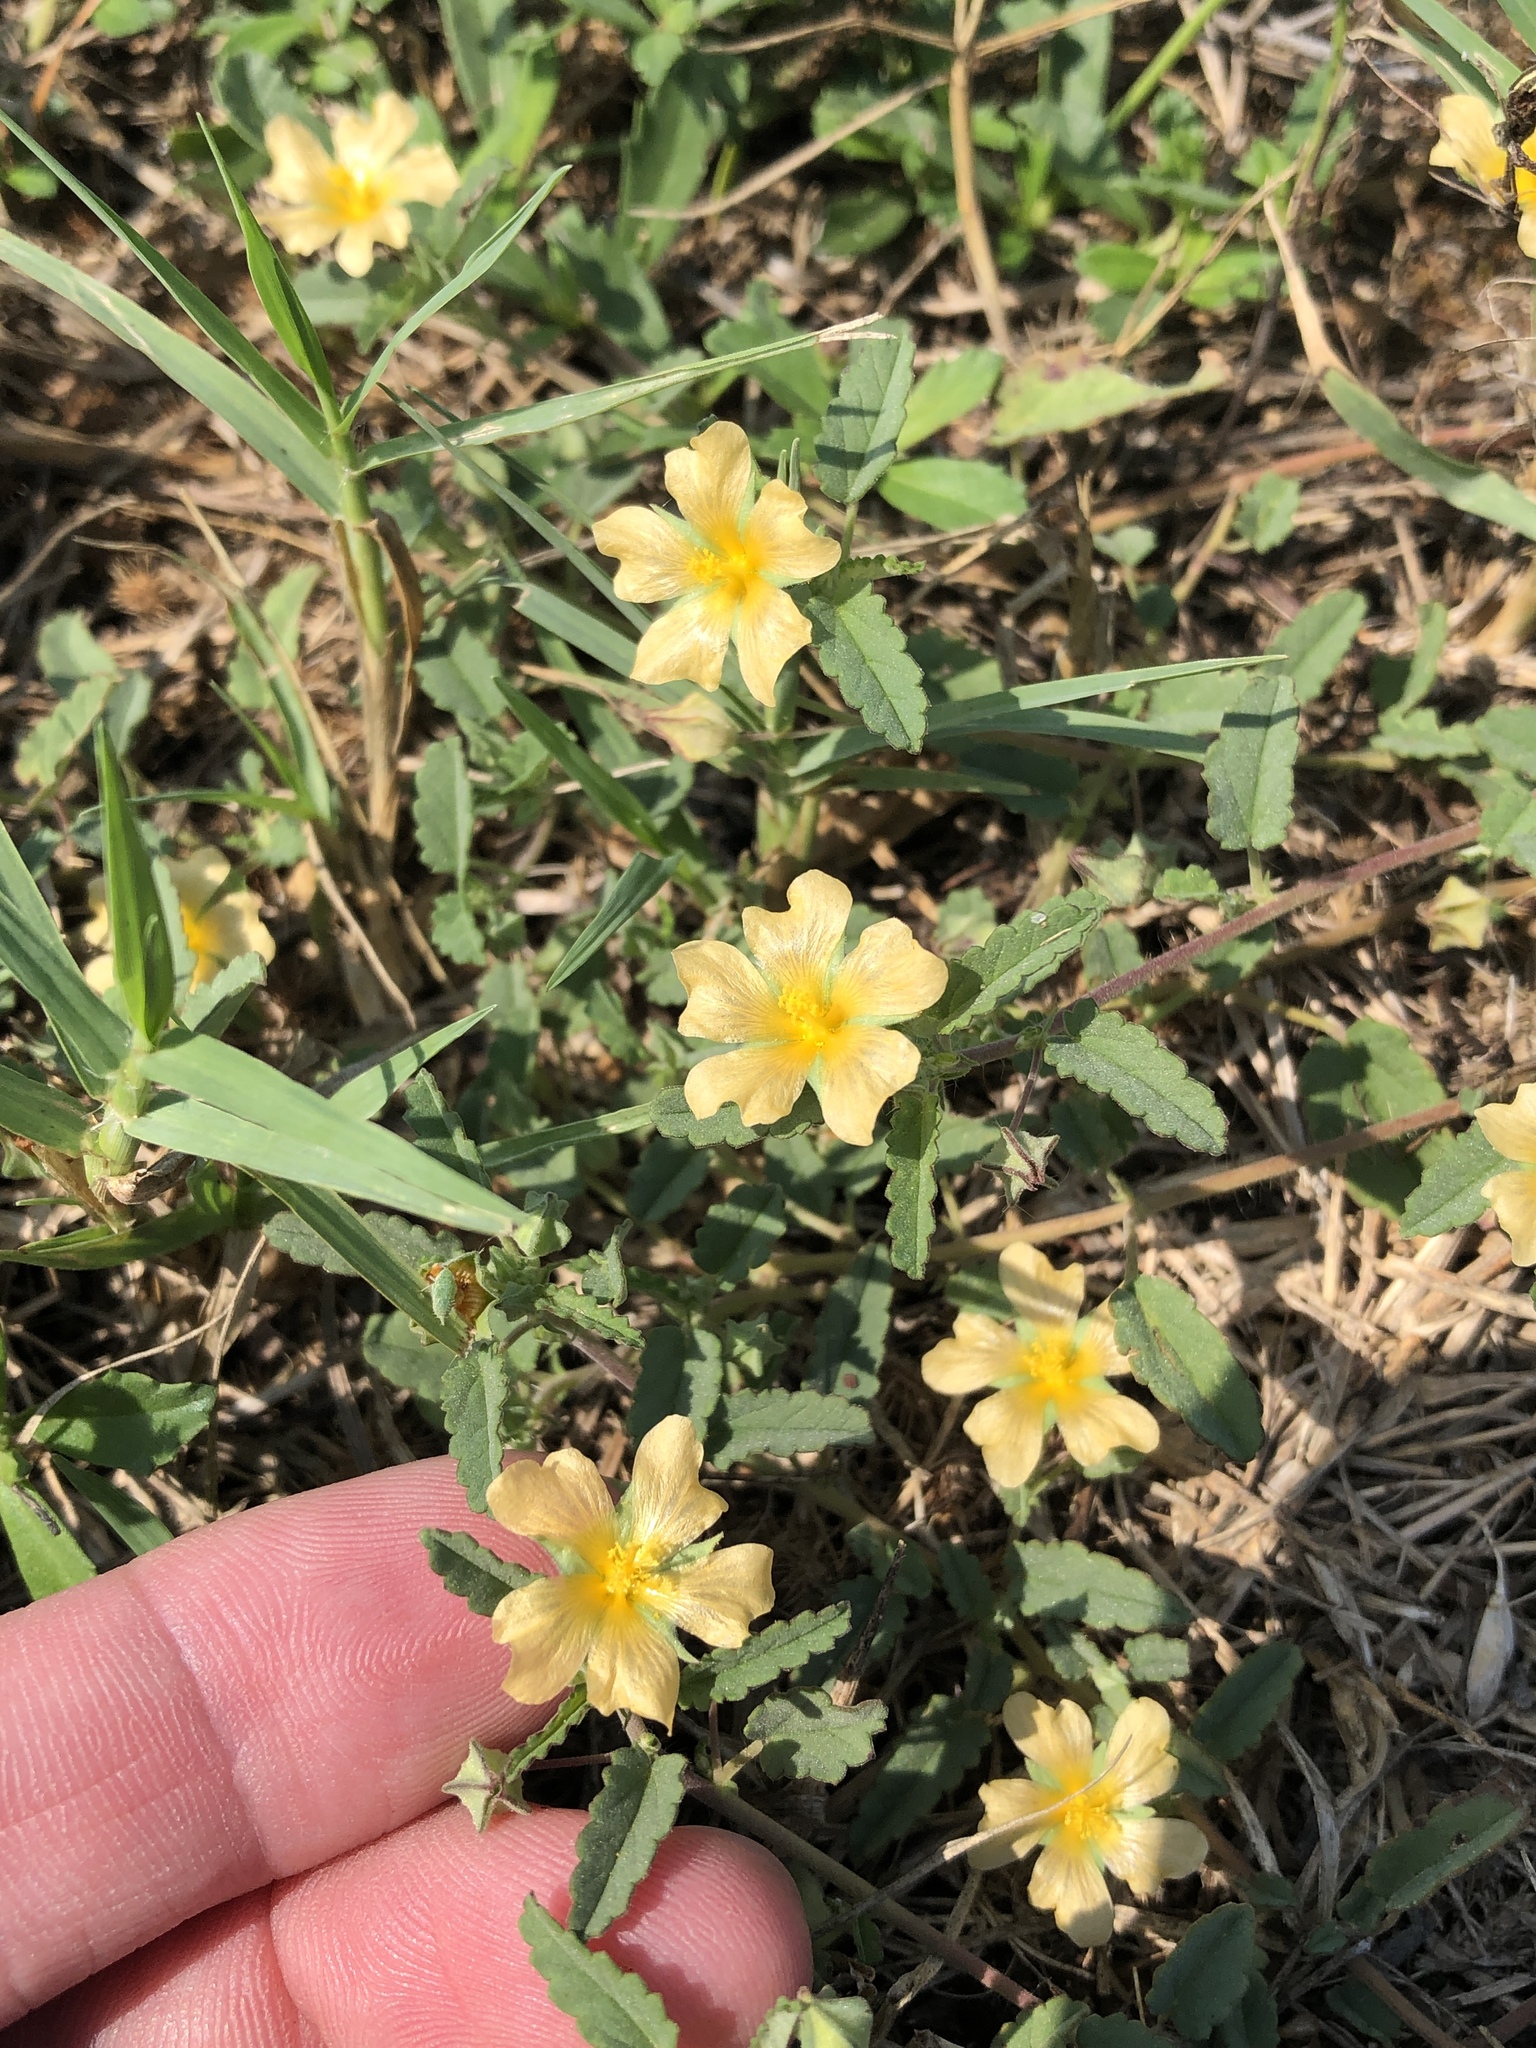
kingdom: Plantae
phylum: Tracheophyta
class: Magnoliopsida
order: Malvales
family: Malvaceae
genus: Sida
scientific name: Sida abutilifolia
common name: Spreading fanpetals
